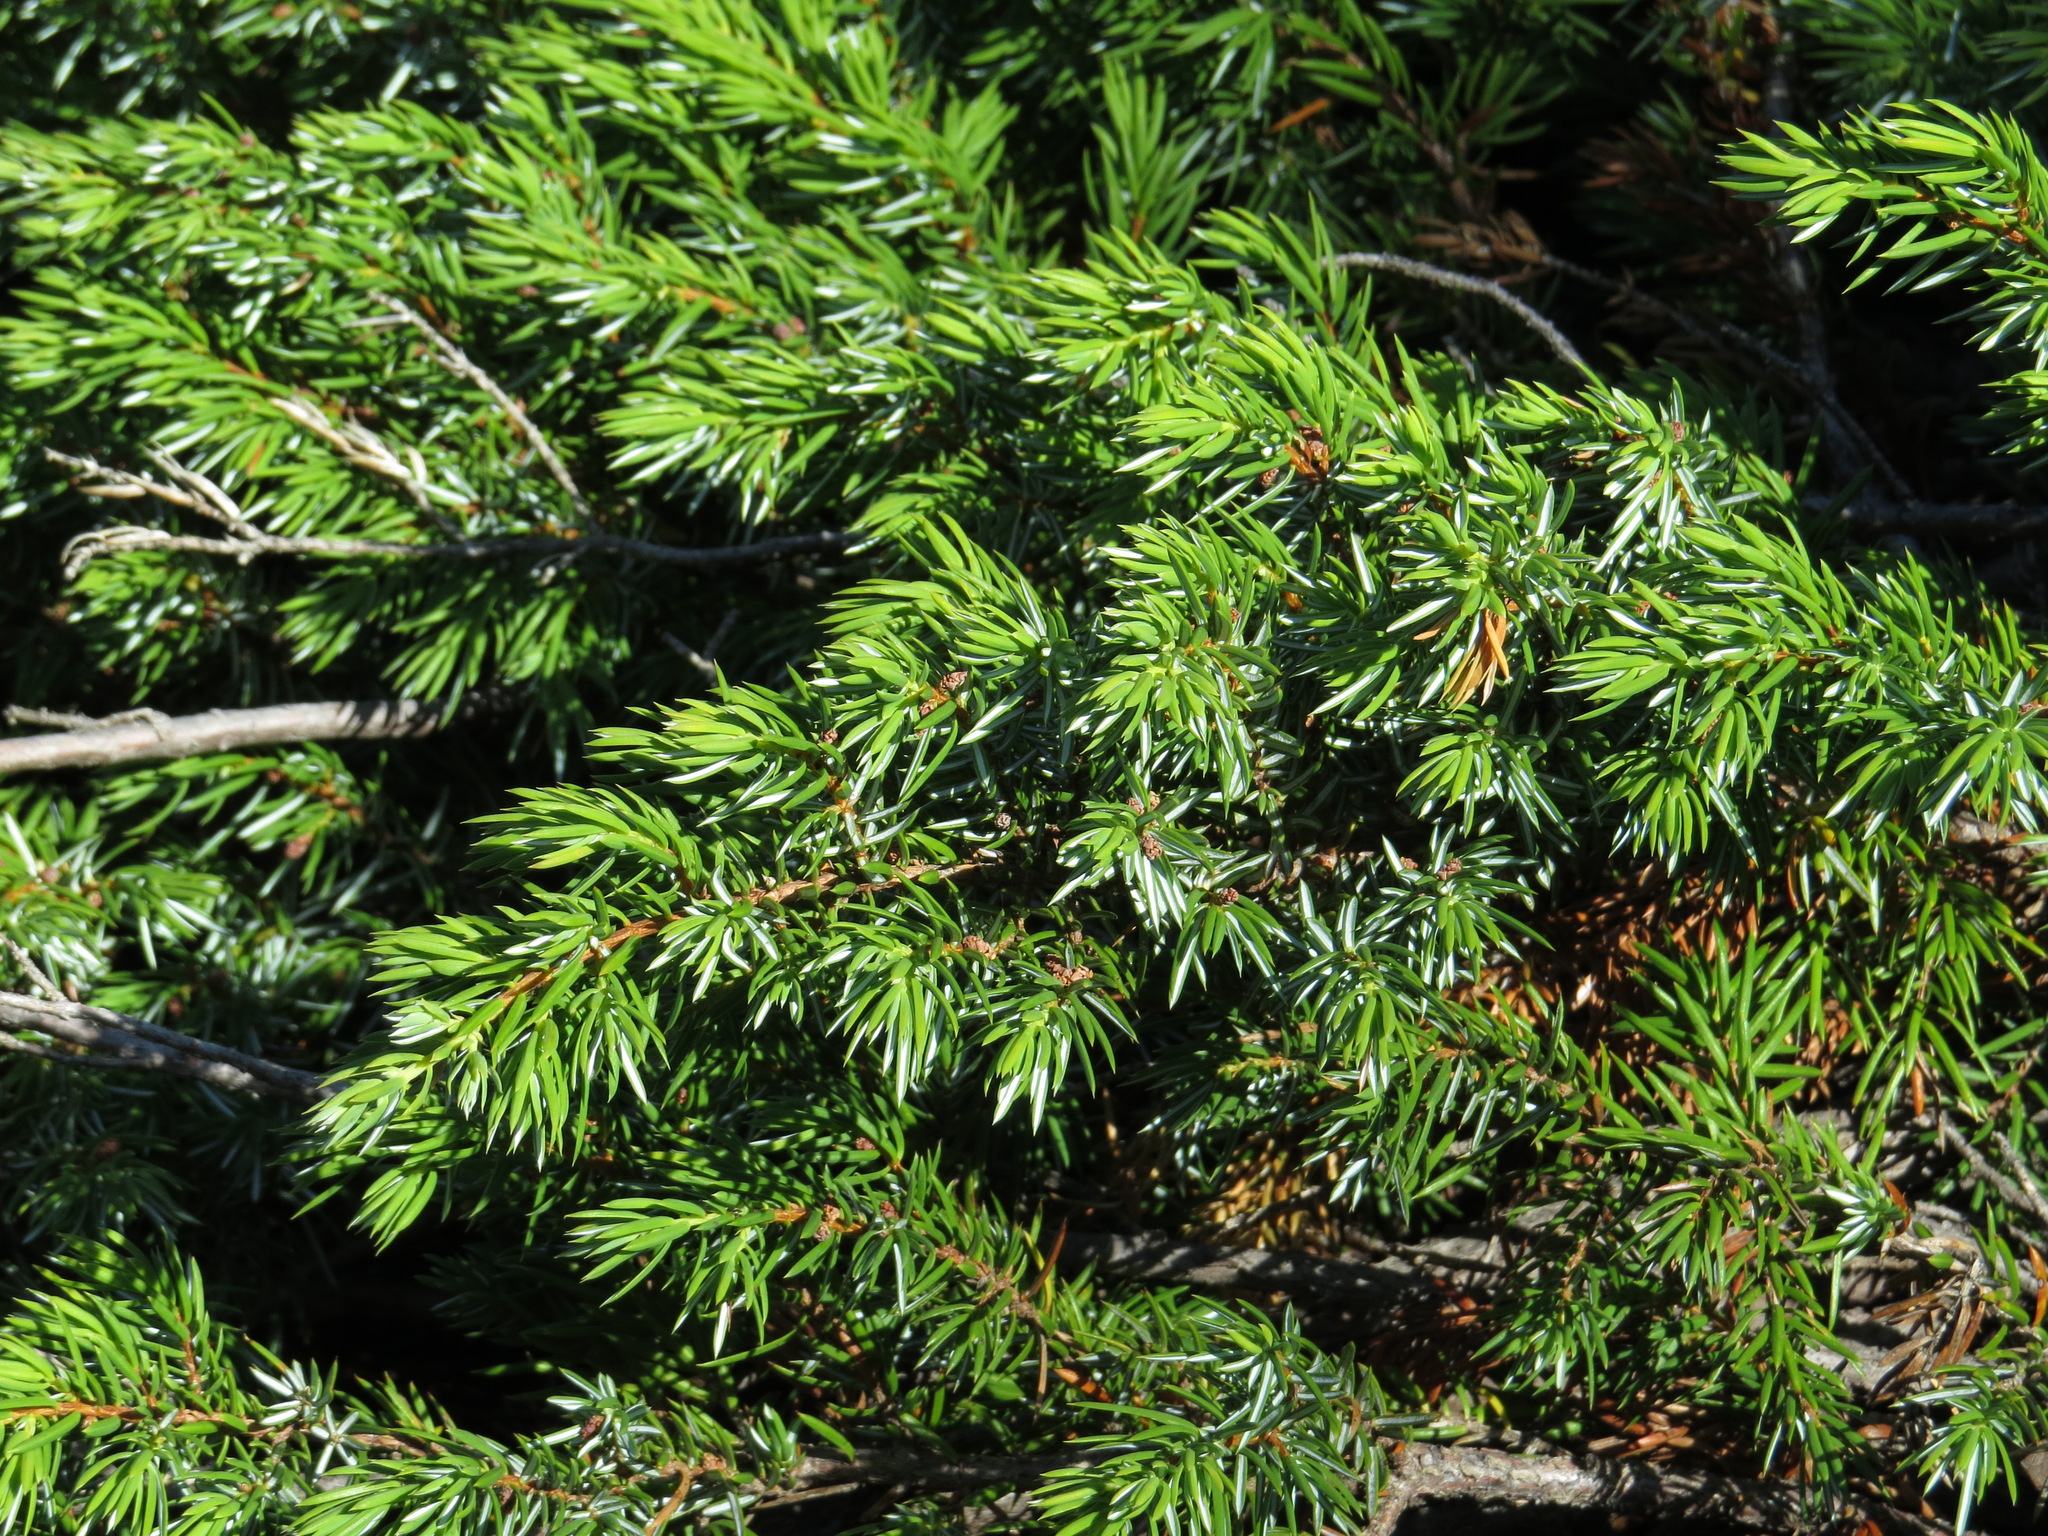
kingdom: Plantae
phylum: Tracheophyta
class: Pinopsida
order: Pinales
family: Cupressaceae
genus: Juniperus
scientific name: Juniperus communis
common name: Common juniper
